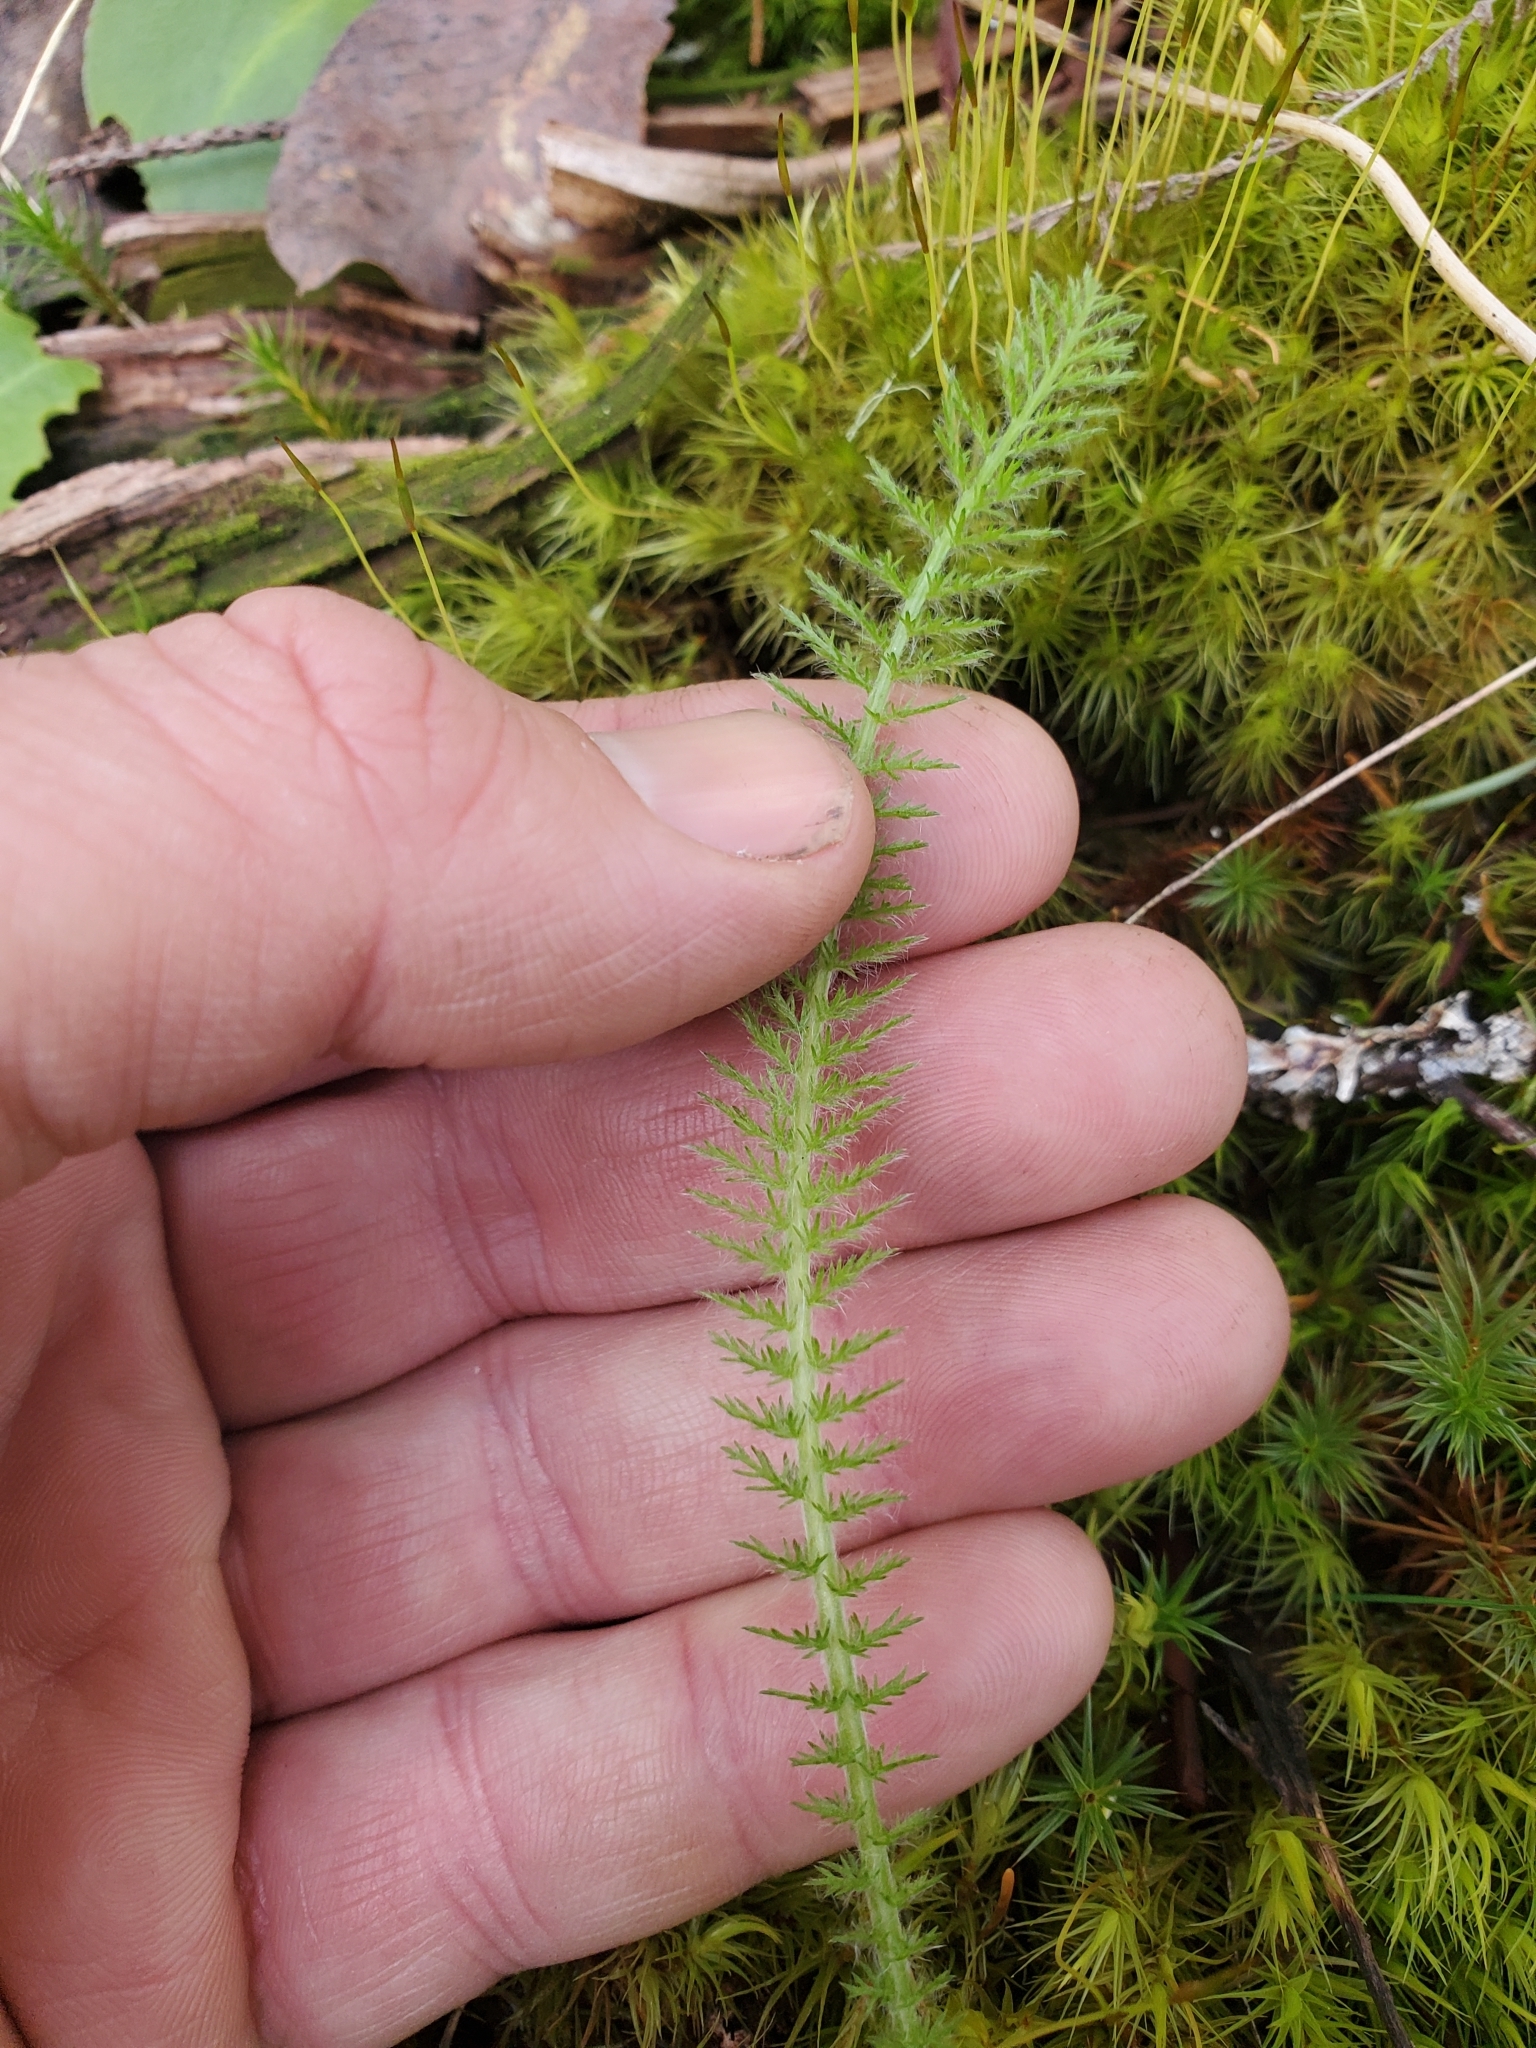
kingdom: Plantae
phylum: Tracheophyta
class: Magnoliopsida
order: Asterales
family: Asteraceae
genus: Achillea
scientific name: Achillea millefolium
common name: Yarrow
